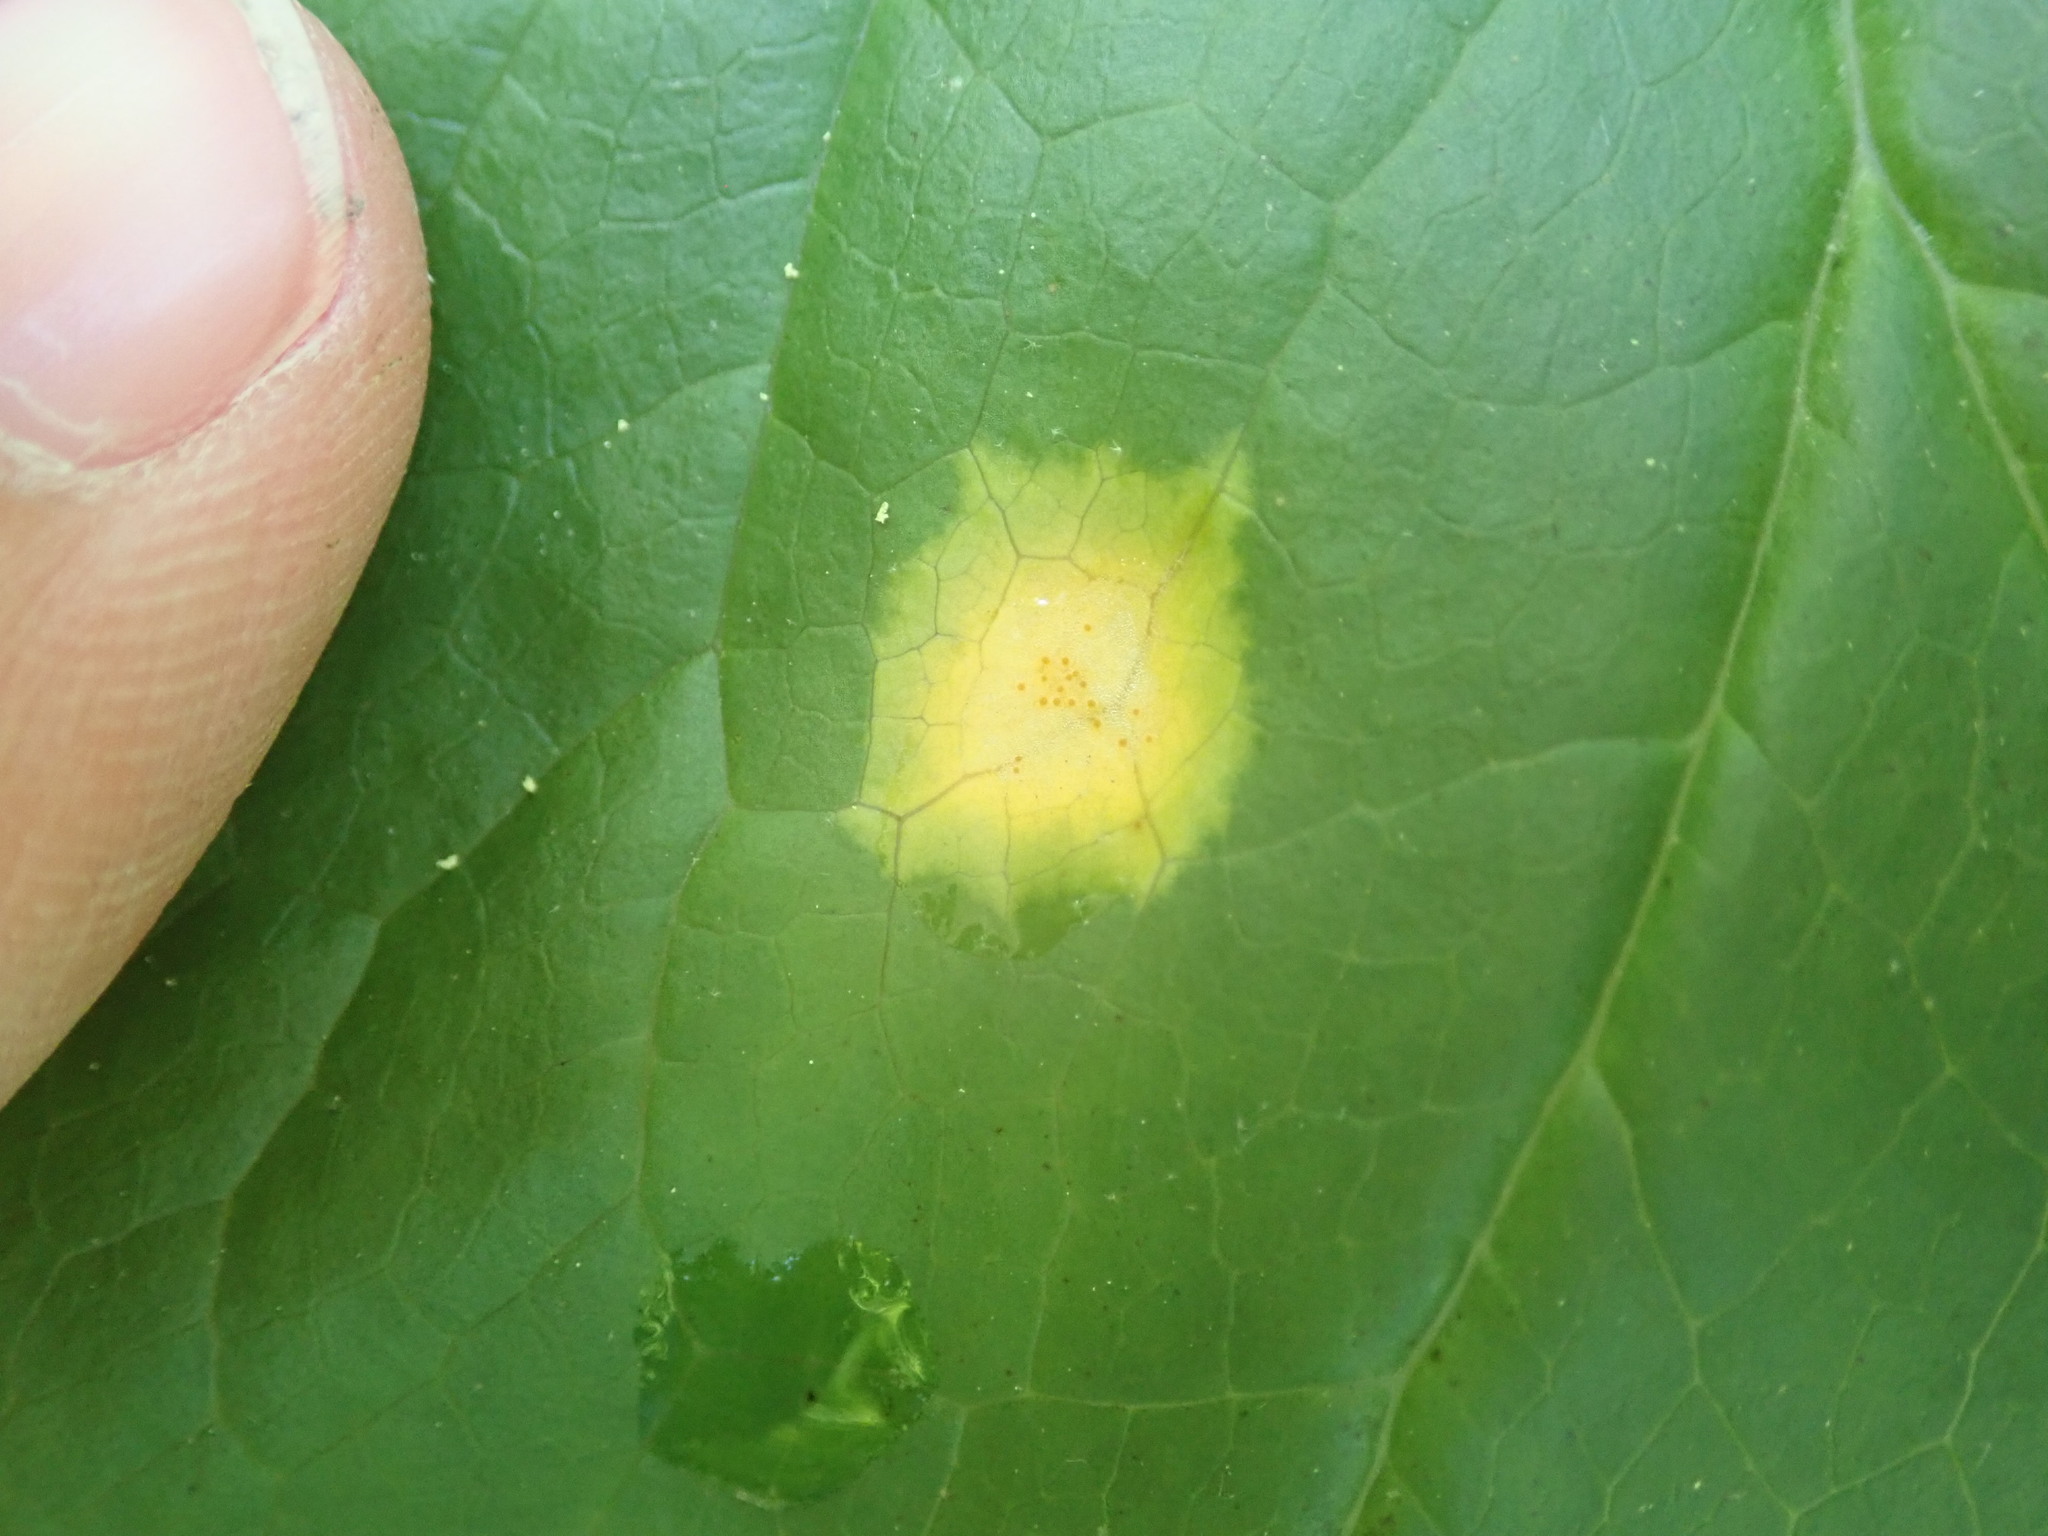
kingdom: Fungi
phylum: Basidiomycota
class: Pucciniomycetes
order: Pucciniales
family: Pucciniaceae
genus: Puccinia
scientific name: Puccinia podophylli
